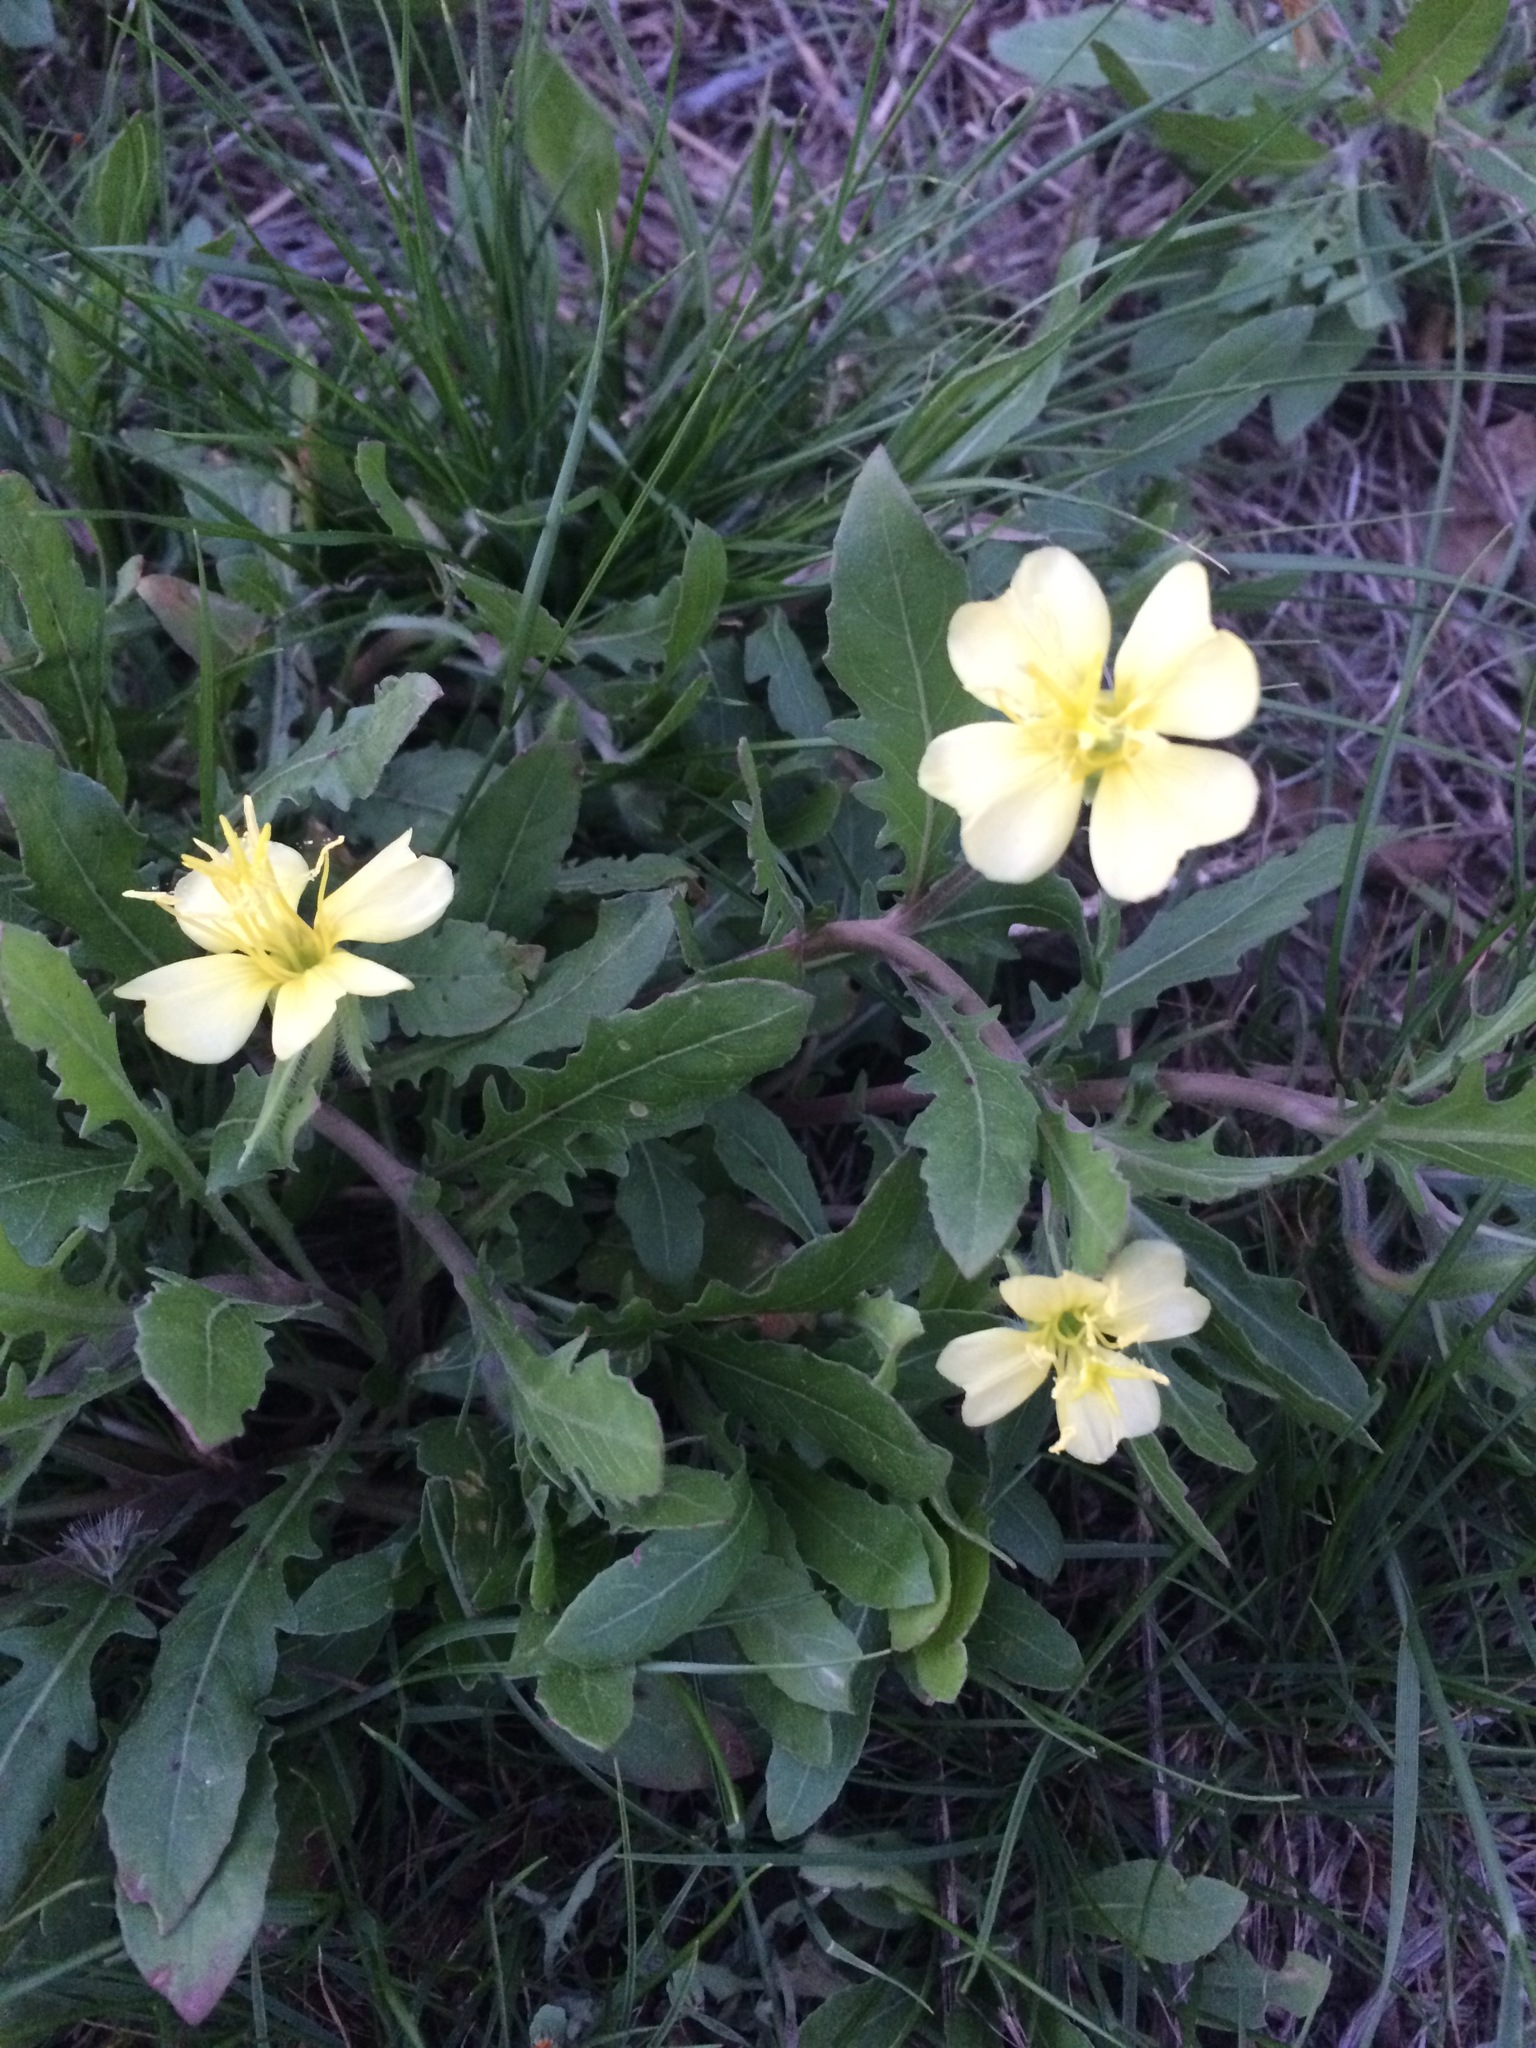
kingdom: Plantae
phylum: Tracheophyta
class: Magnoliopsida
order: Myrtales
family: Onagraceae
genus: Oenothera
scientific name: Oenothera laciniata
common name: Cut-leaved evening-primrose
